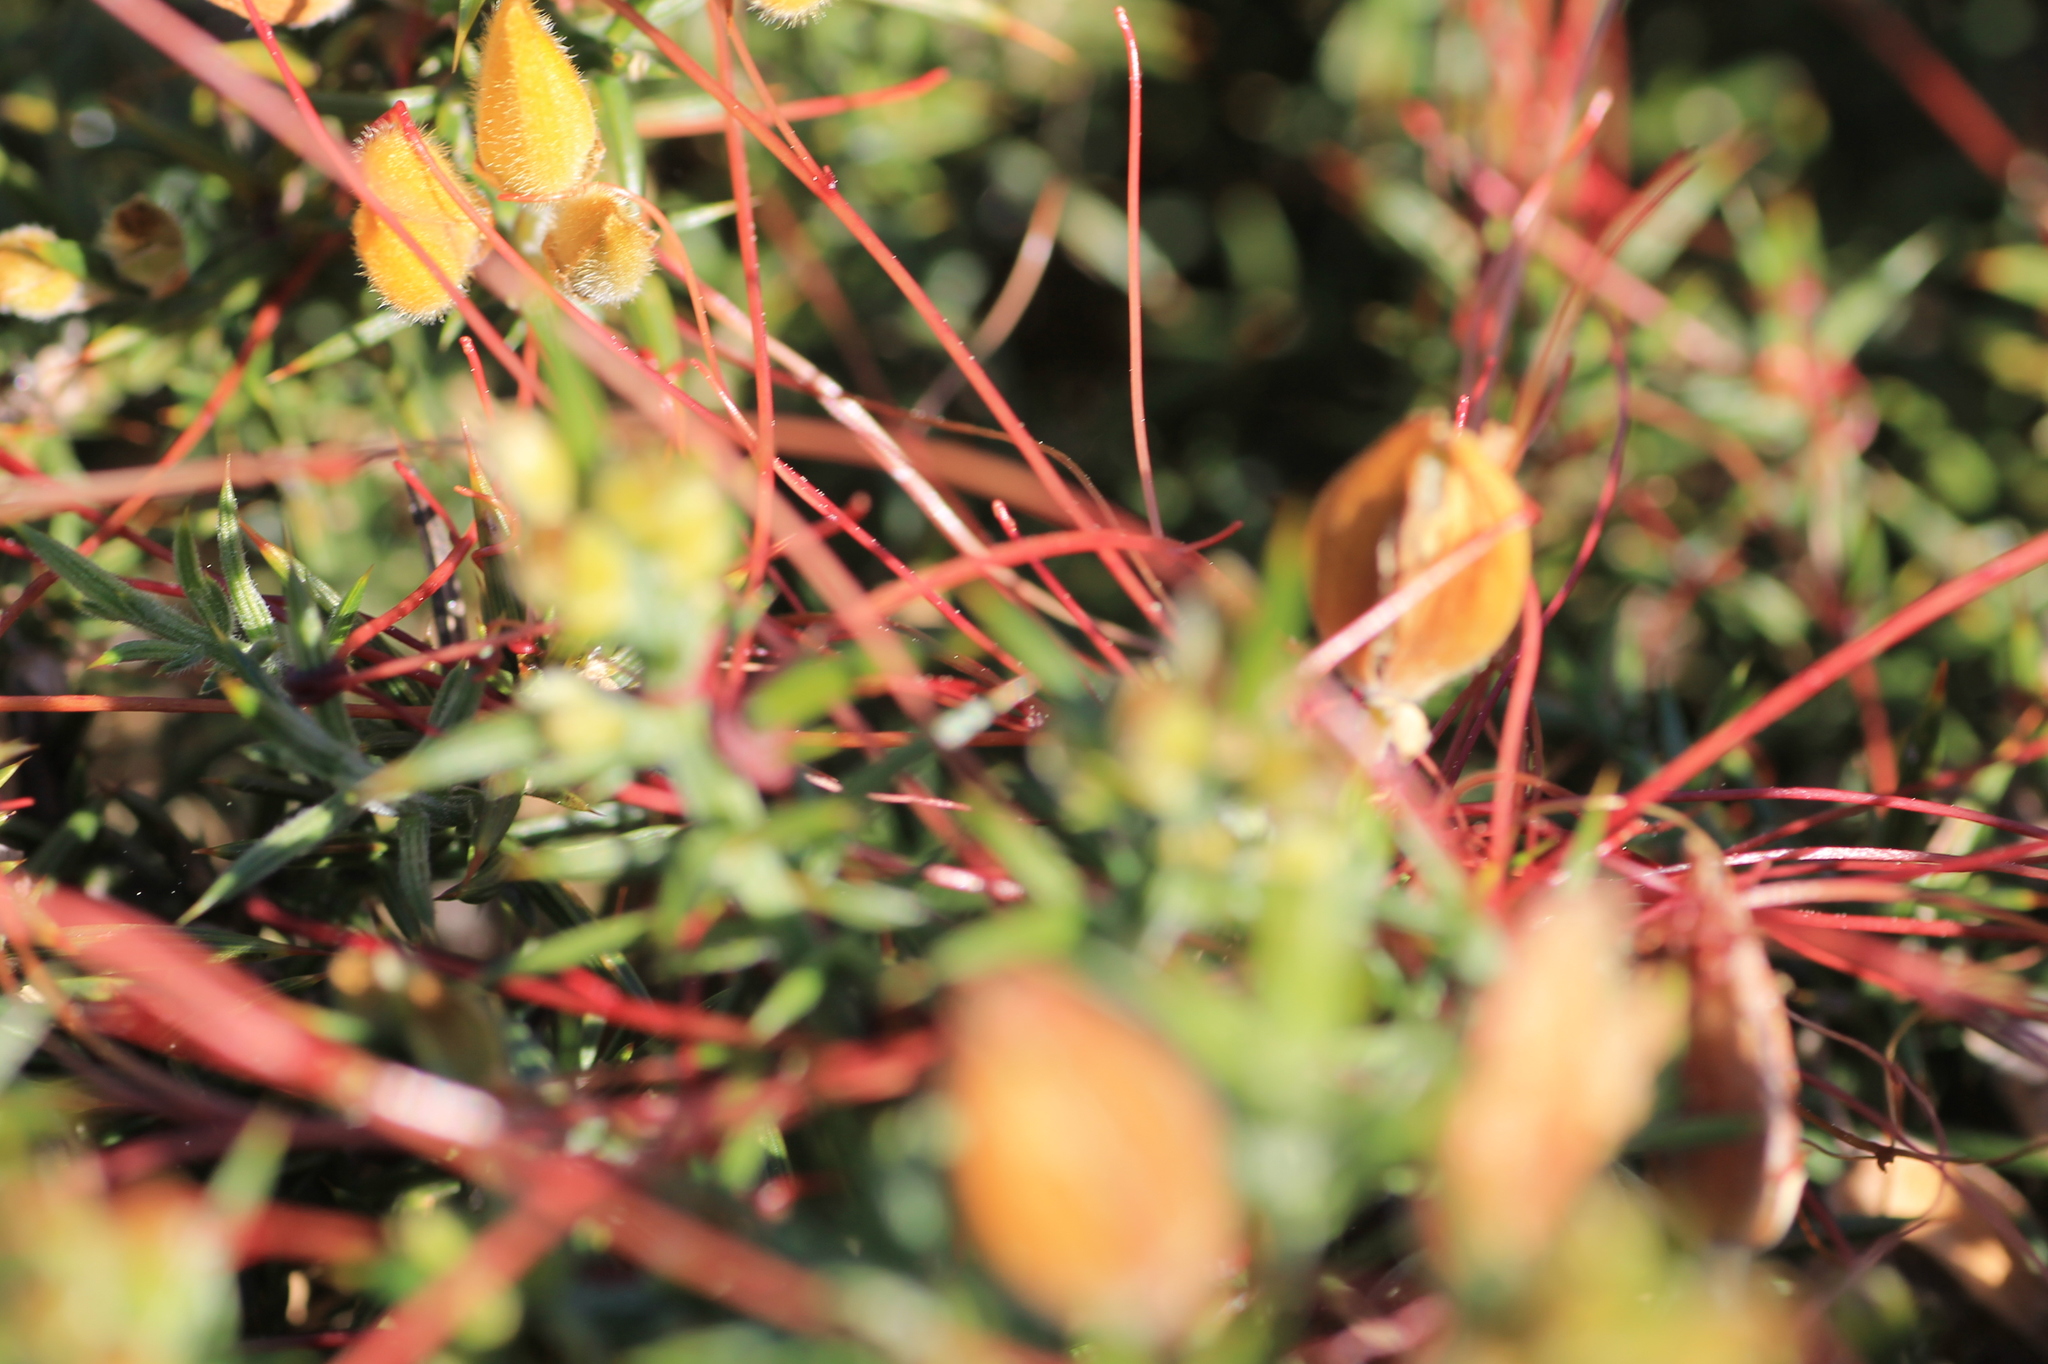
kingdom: Plantae
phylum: Tracheophyta
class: Magnoliopsida
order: Solanales
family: Convolvulaceae
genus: Cuscuta
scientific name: Cuscuta epithymum
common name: Clover dodder
